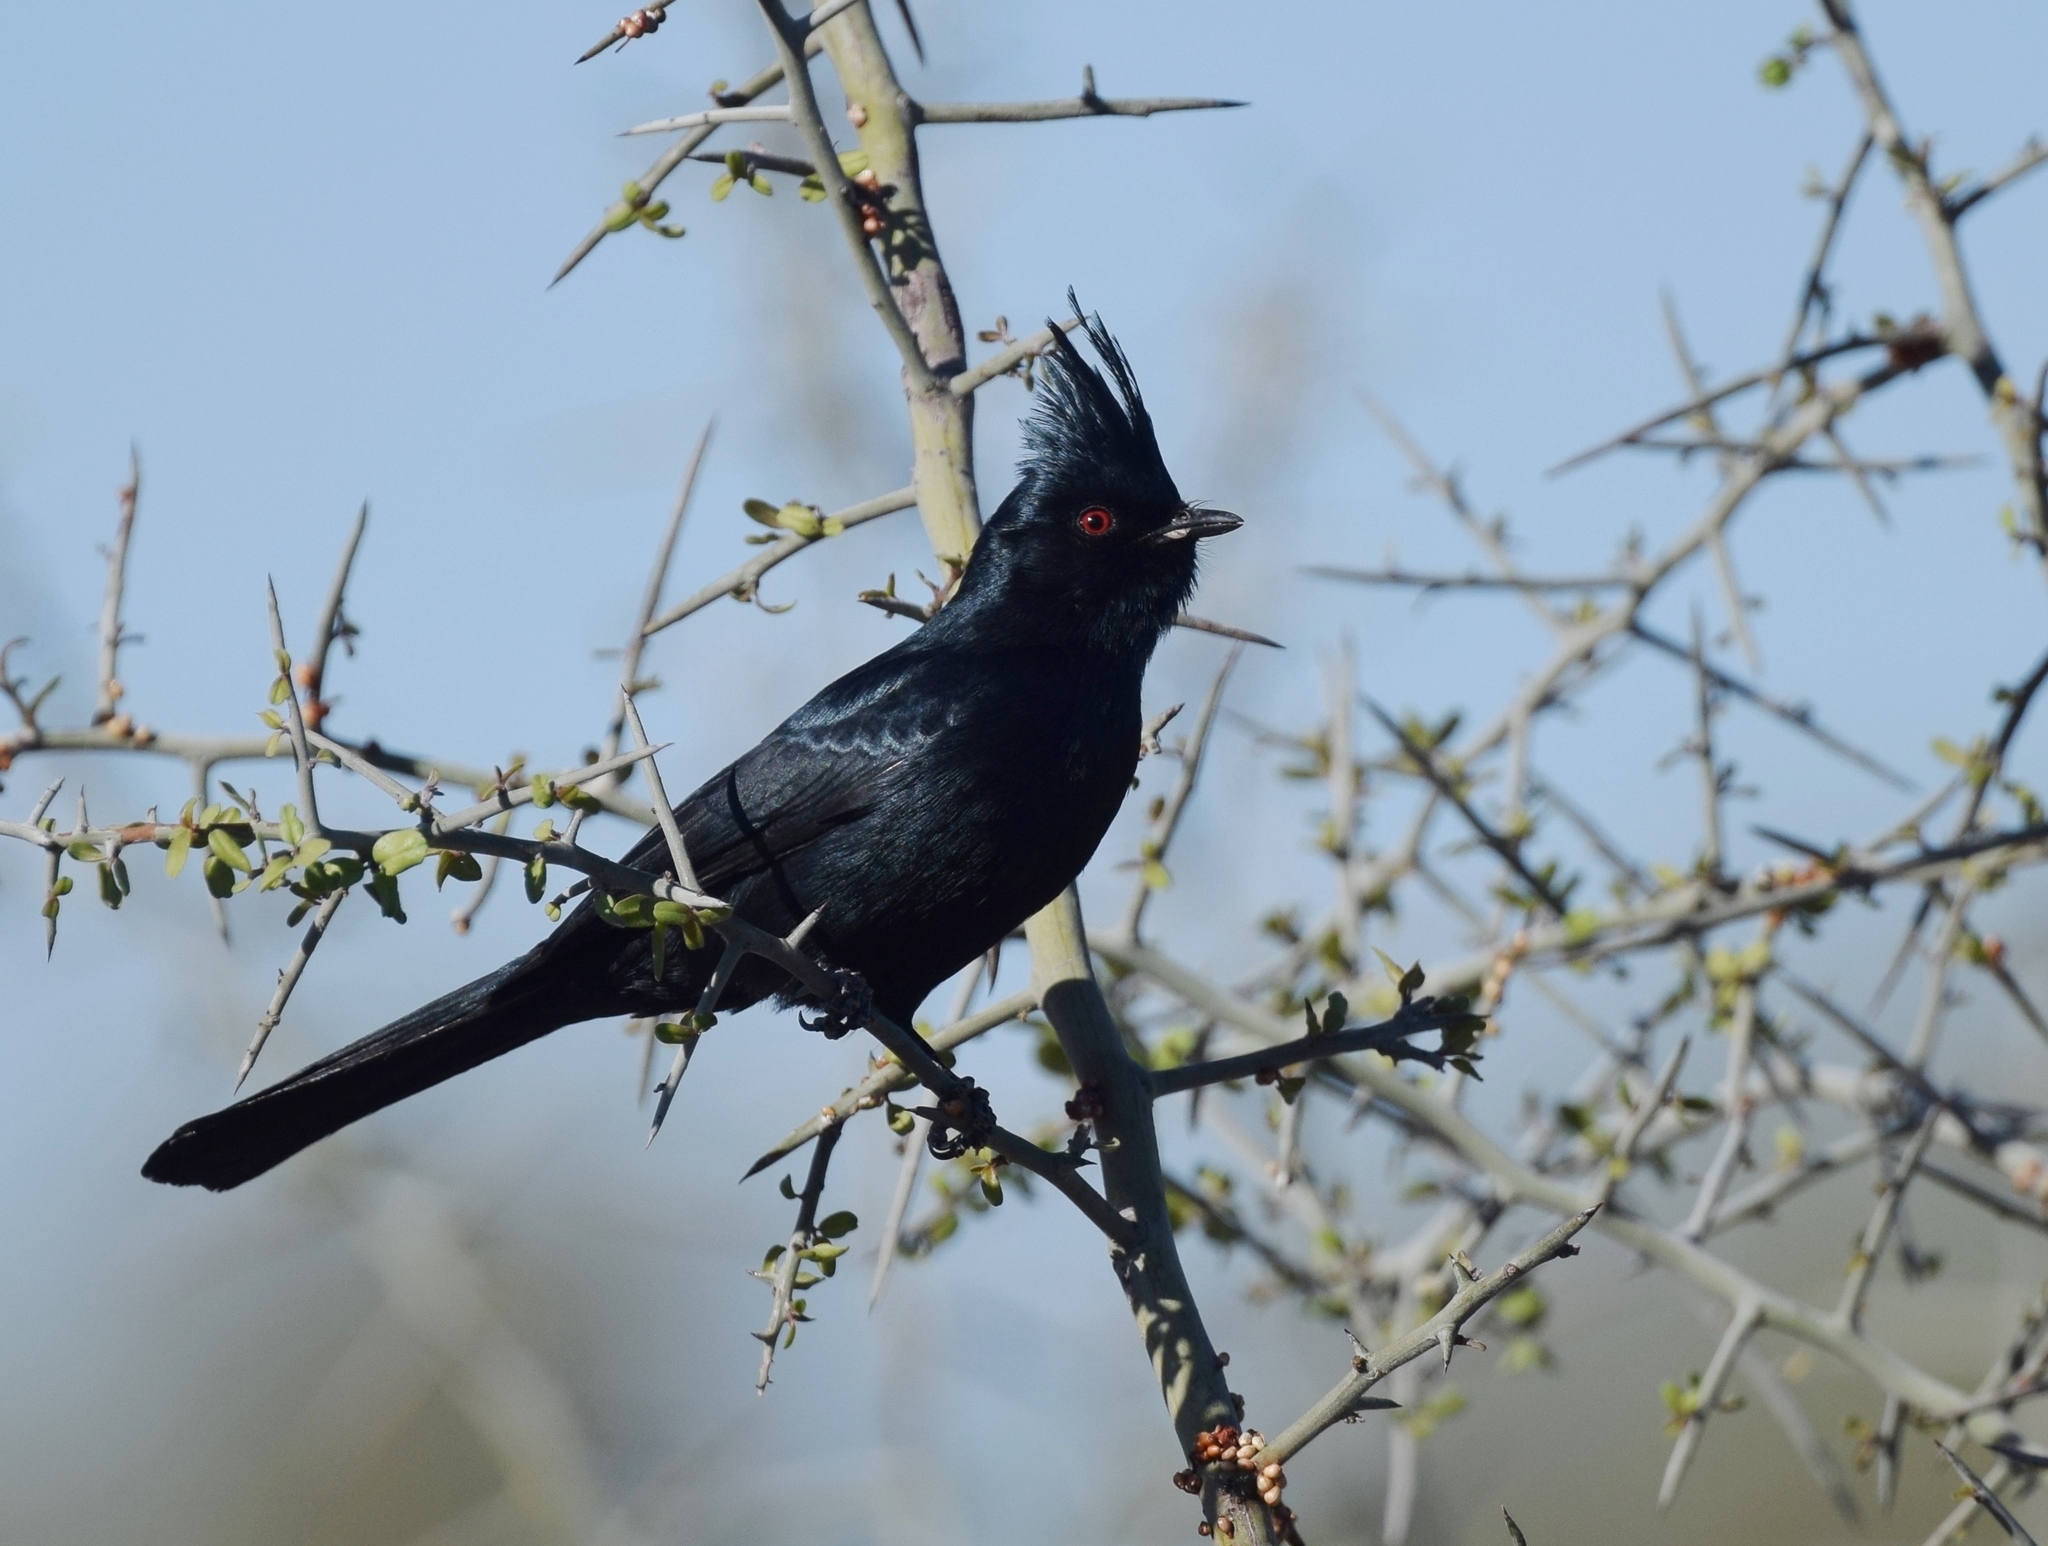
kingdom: Animalia
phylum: Chordata
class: Aves
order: Passeriformes
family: Ptilogonatidae
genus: Phainopepla
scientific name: Phainopepla nitens
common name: Phainopepla
